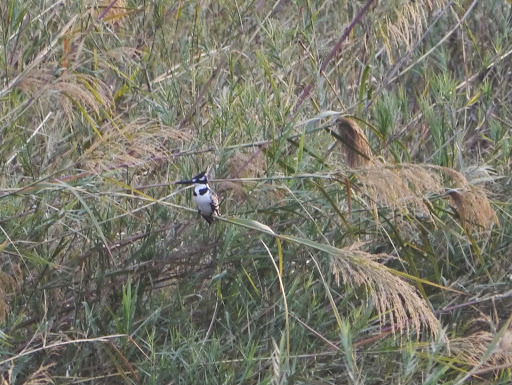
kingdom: Animalia
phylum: Chordata
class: Aves
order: Coraciiformes
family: Alcedinidae
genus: Ceryle
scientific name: Ceryle rudis
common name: Pied kingfisher
